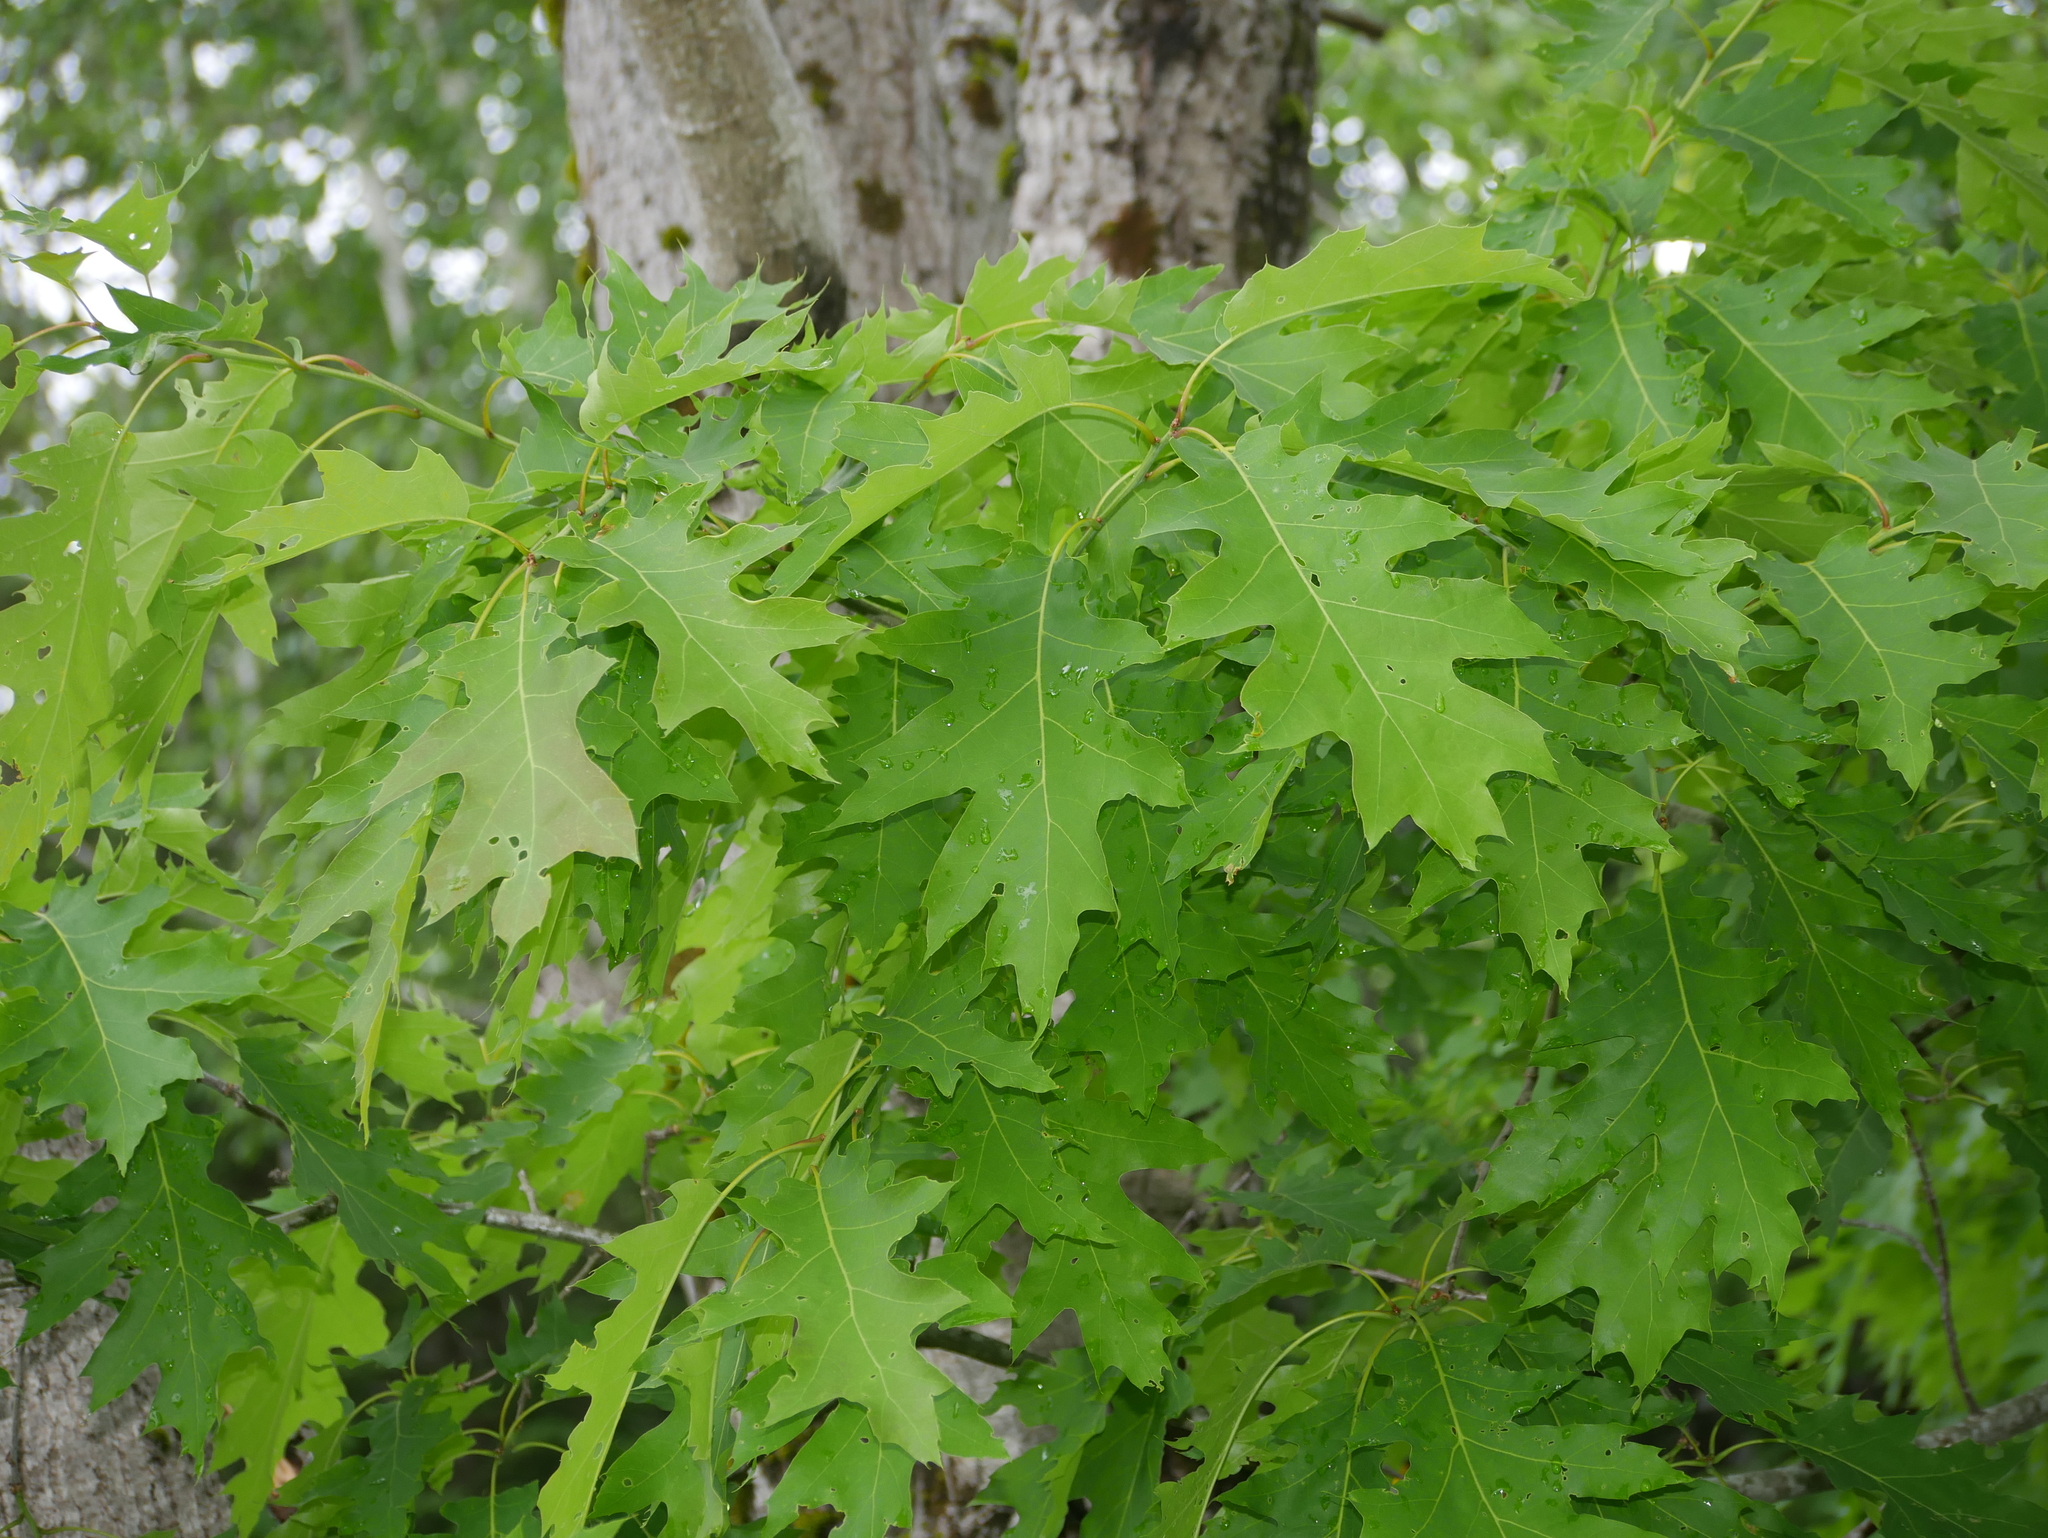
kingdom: Plantae
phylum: Tracheophyta
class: Magnoliopsida
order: Fagales
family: Fagaceae
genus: Quercus
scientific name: Quercus rubra
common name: Red oak
